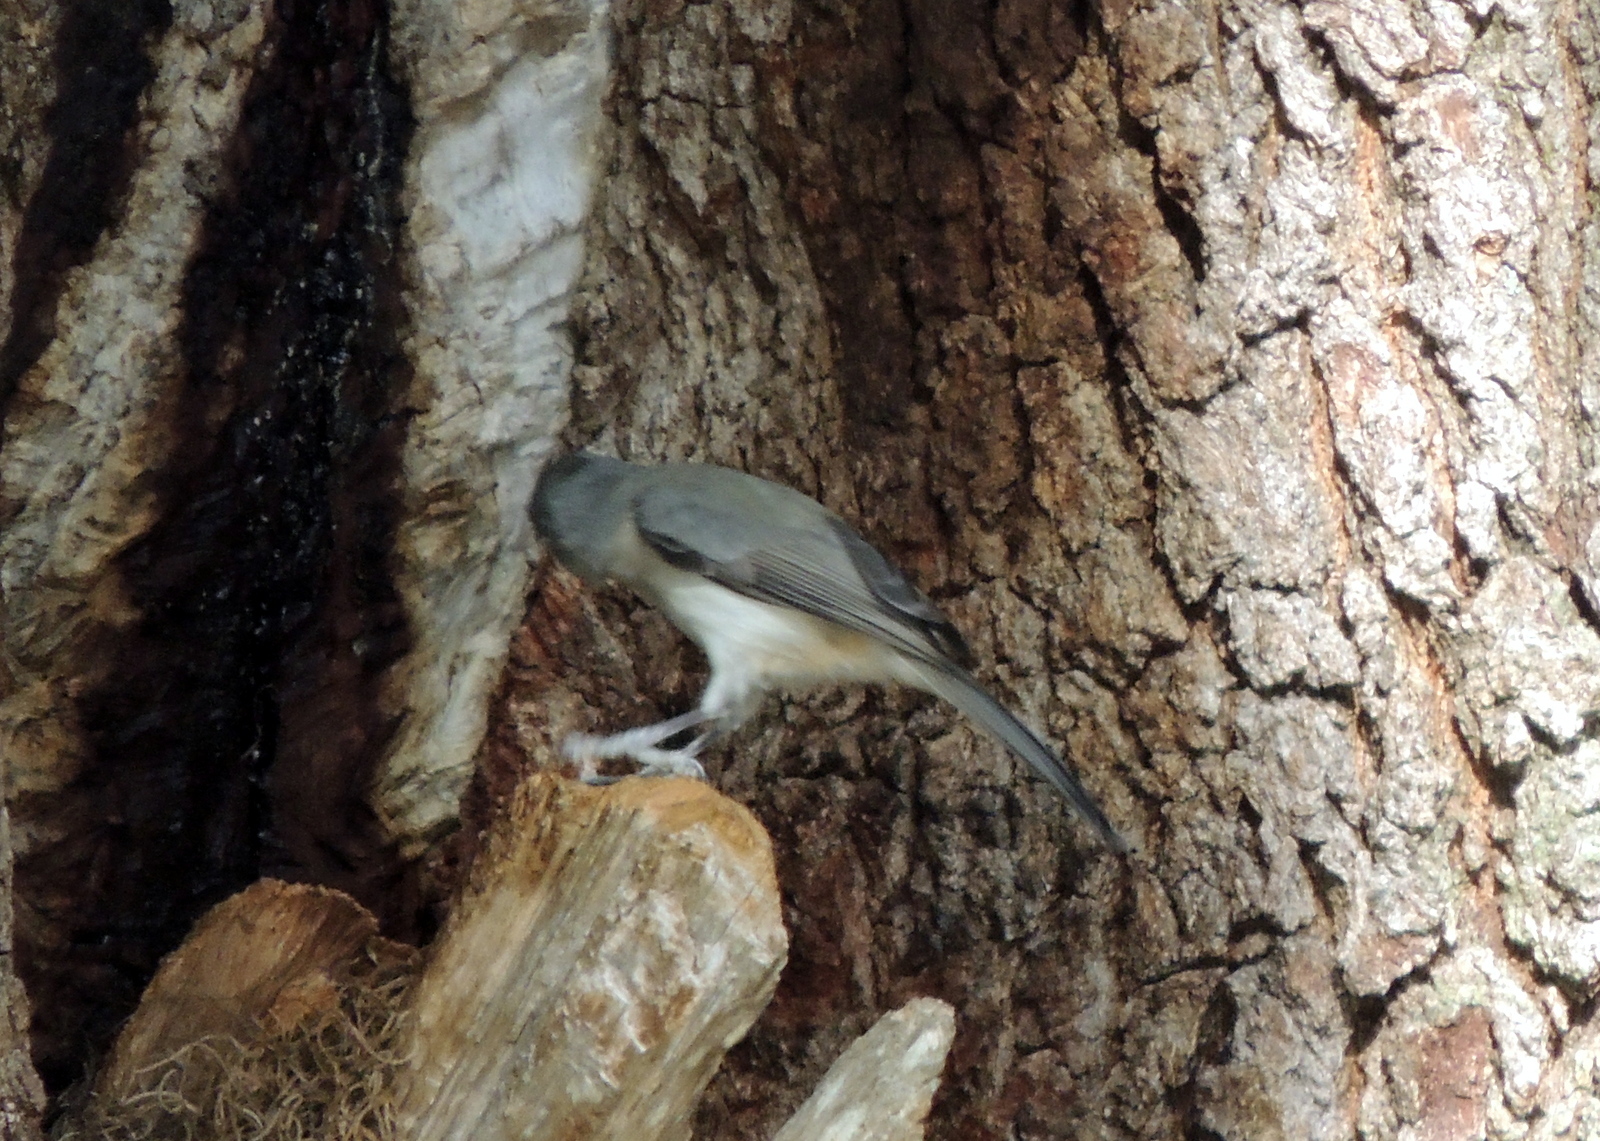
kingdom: Animalia
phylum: Chordata
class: Aves
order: Passeriformes
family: Paridae
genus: Baeolophus
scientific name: Baeolophus bicolor
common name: Tufted titmouse
